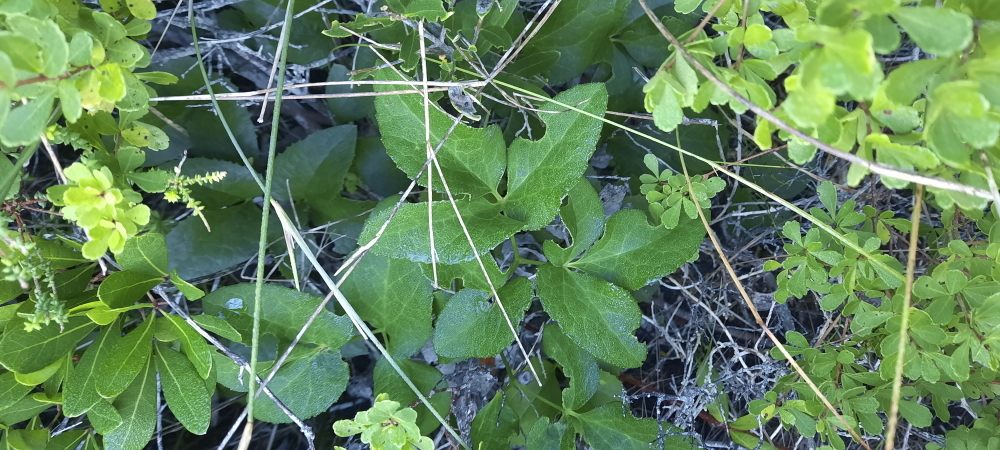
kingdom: Plantae
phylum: Tracheophyta
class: Magnoliopsida
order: Ranunculales
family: Ranunculaceae
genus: Knowltonia
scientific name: Knowltonia vesicatoria
